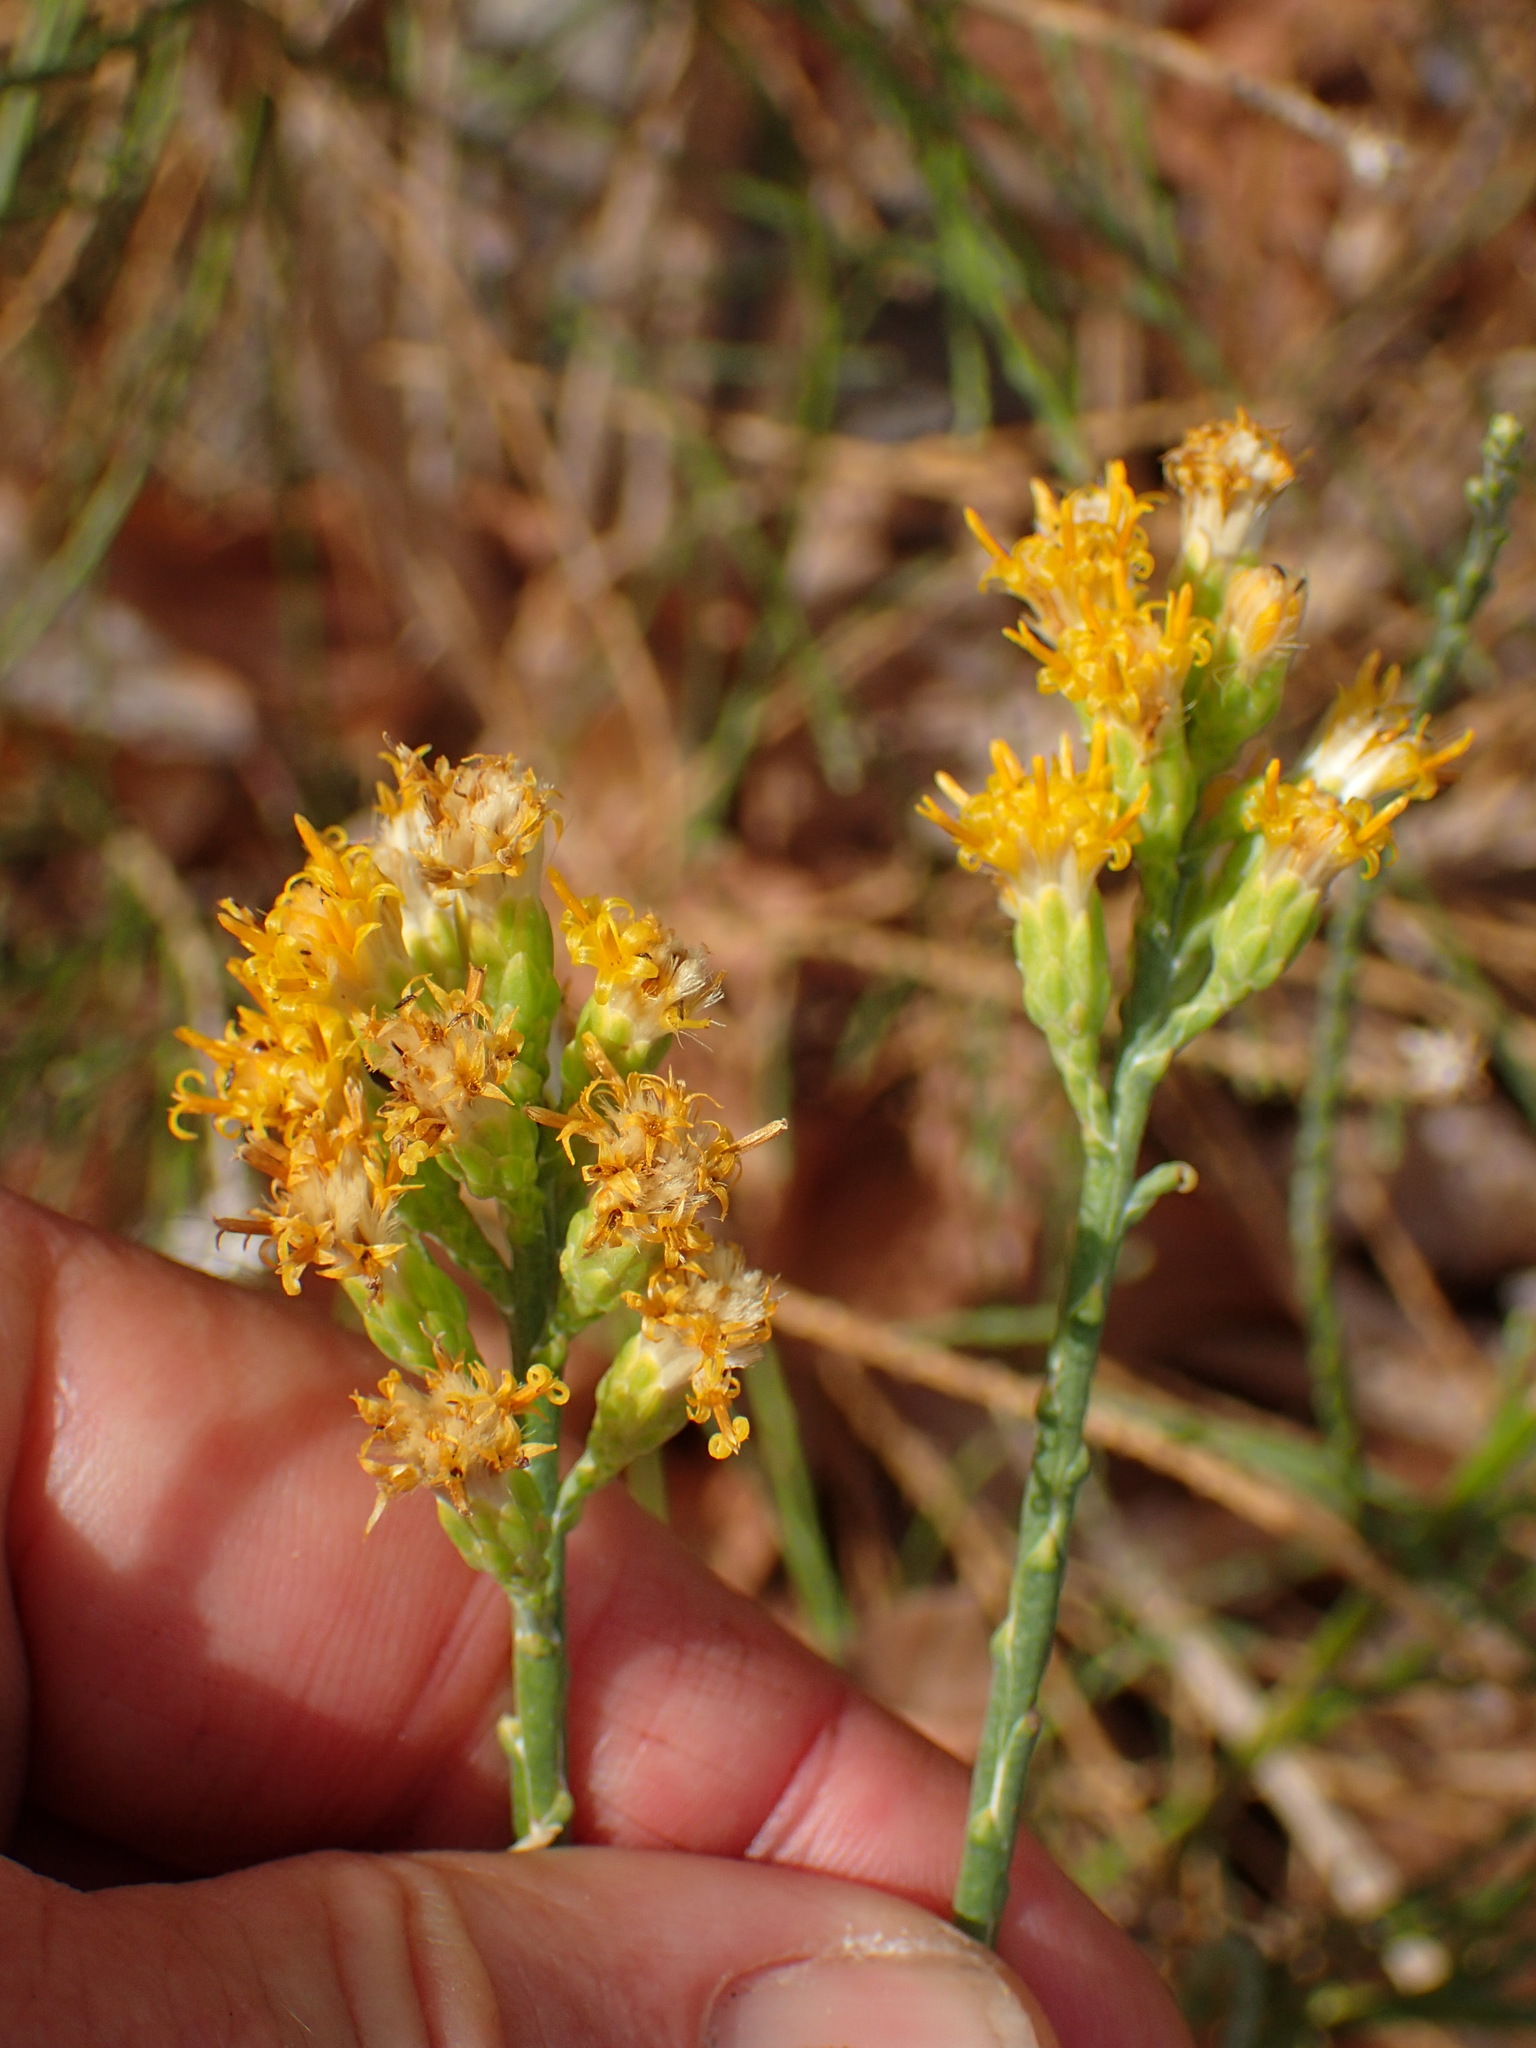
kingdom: Plantae
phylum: Tracheophyta
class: Magnoliopsida
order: Asterales
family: Asteraceae
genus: Lepidospartum
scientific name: Lepidospartum squamatum
